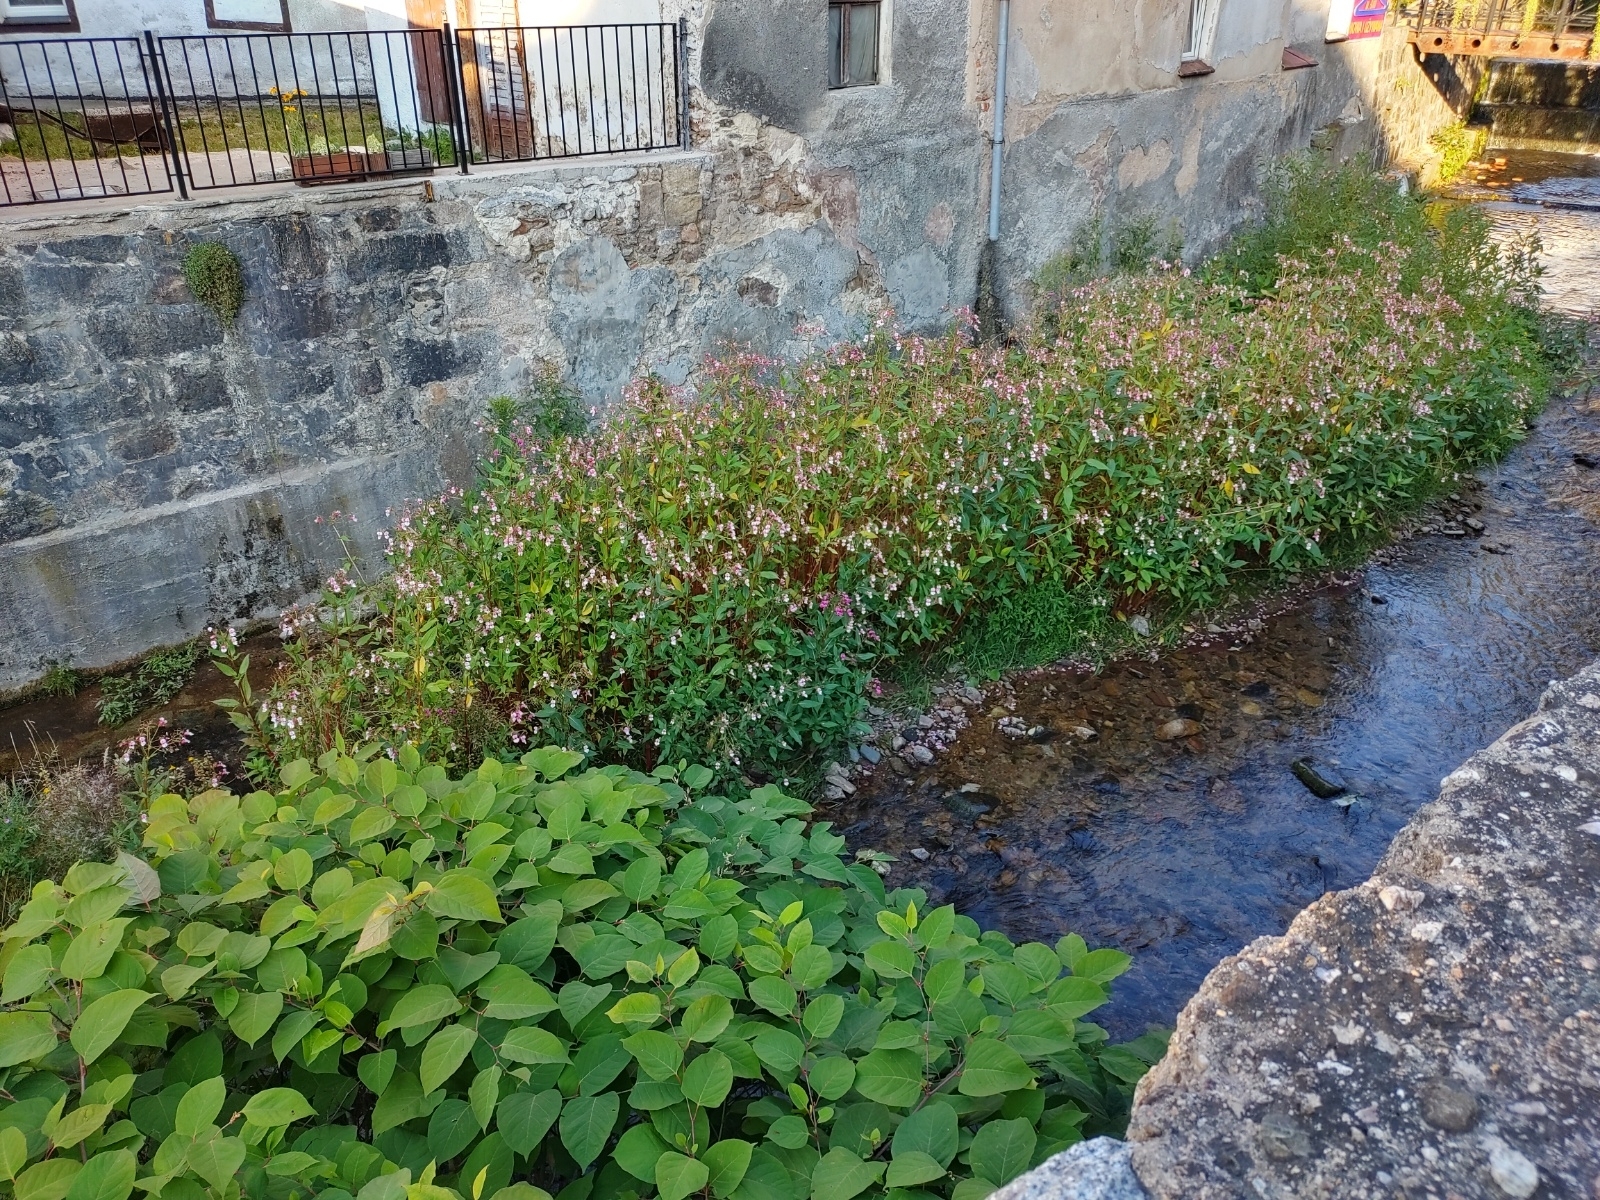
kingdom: Plantae
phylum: Tracheophyta
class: Magnoliopsida
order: Ericales
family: Balsaminaceae
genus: Impatiens
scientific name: Impatiens glandulifera
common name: Himalayan balsam
